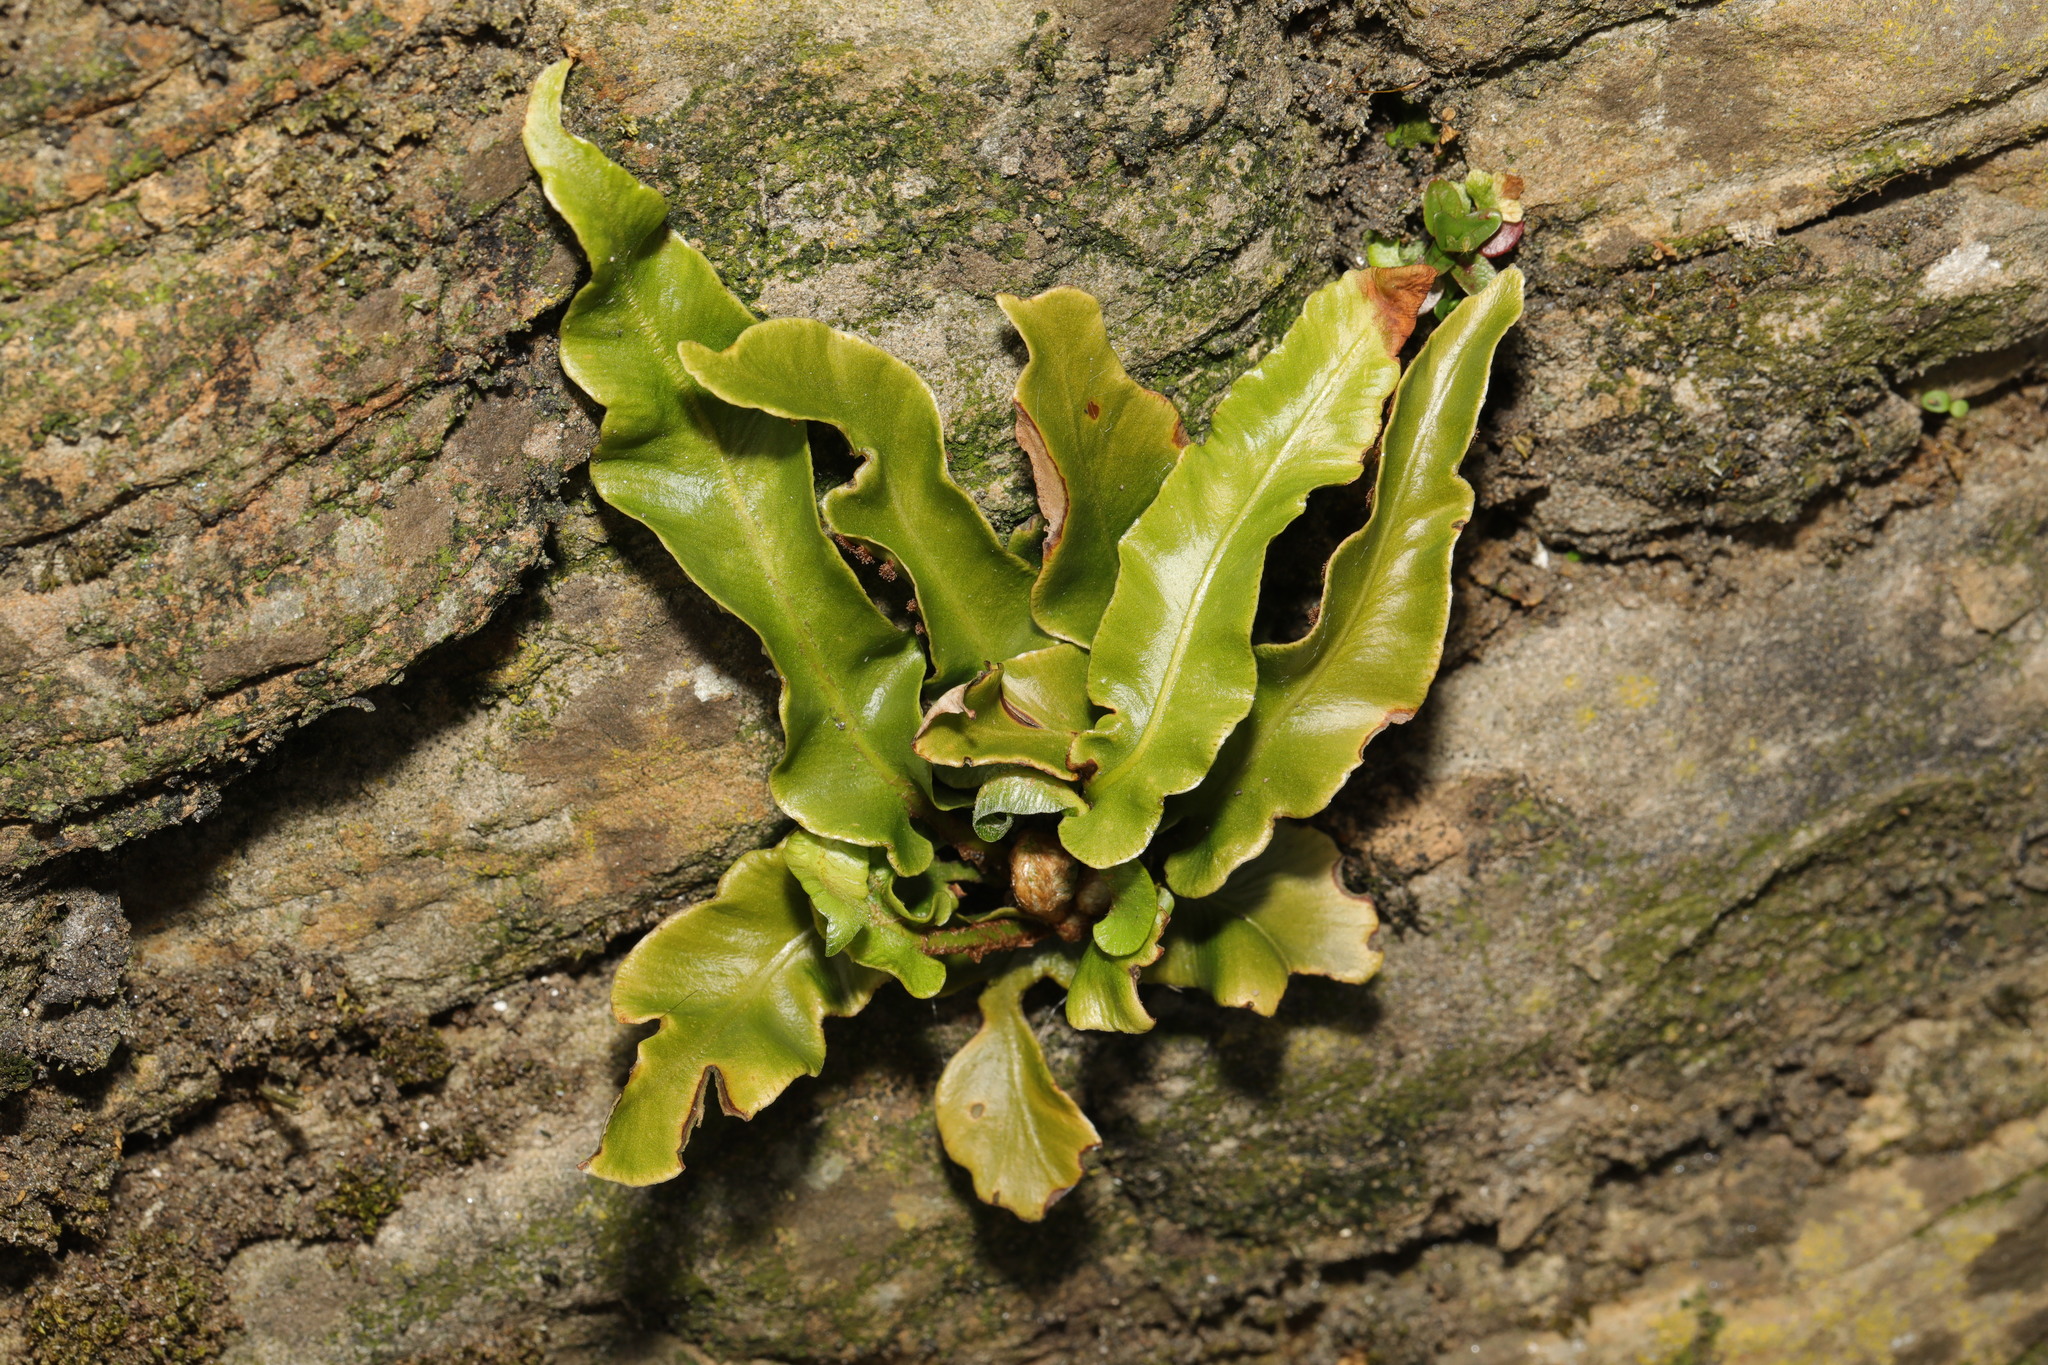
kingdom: Plantae
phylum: Tracheophyta
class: Polypodiopsida
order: Polypodiales
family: Aspleniaceae
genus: Asplenium
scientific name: Asplenium scolopendrium
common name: Hart's-tongue fern
